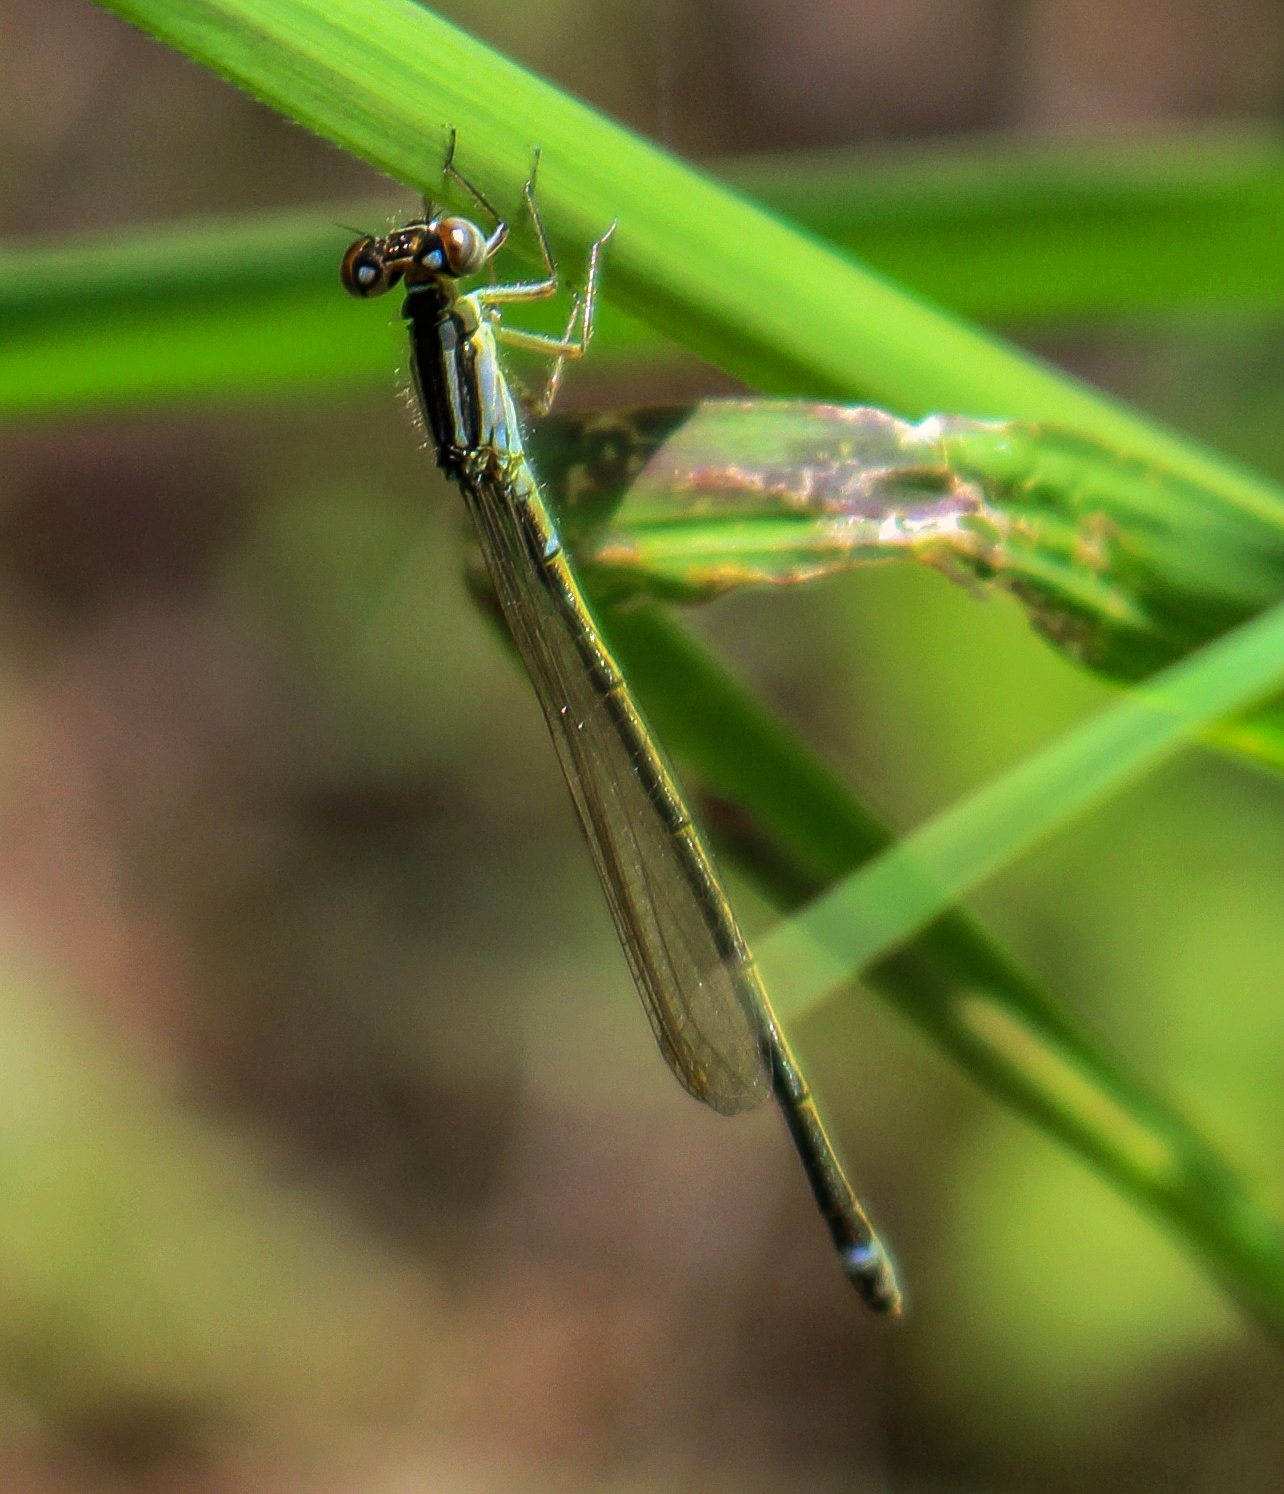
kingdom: Animalia
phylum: Arthropoda
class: Insecta
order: Odonata
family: Coenagrionidae
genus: Ischnura
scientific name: Ischnura verticalis
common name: Eastern forktail
